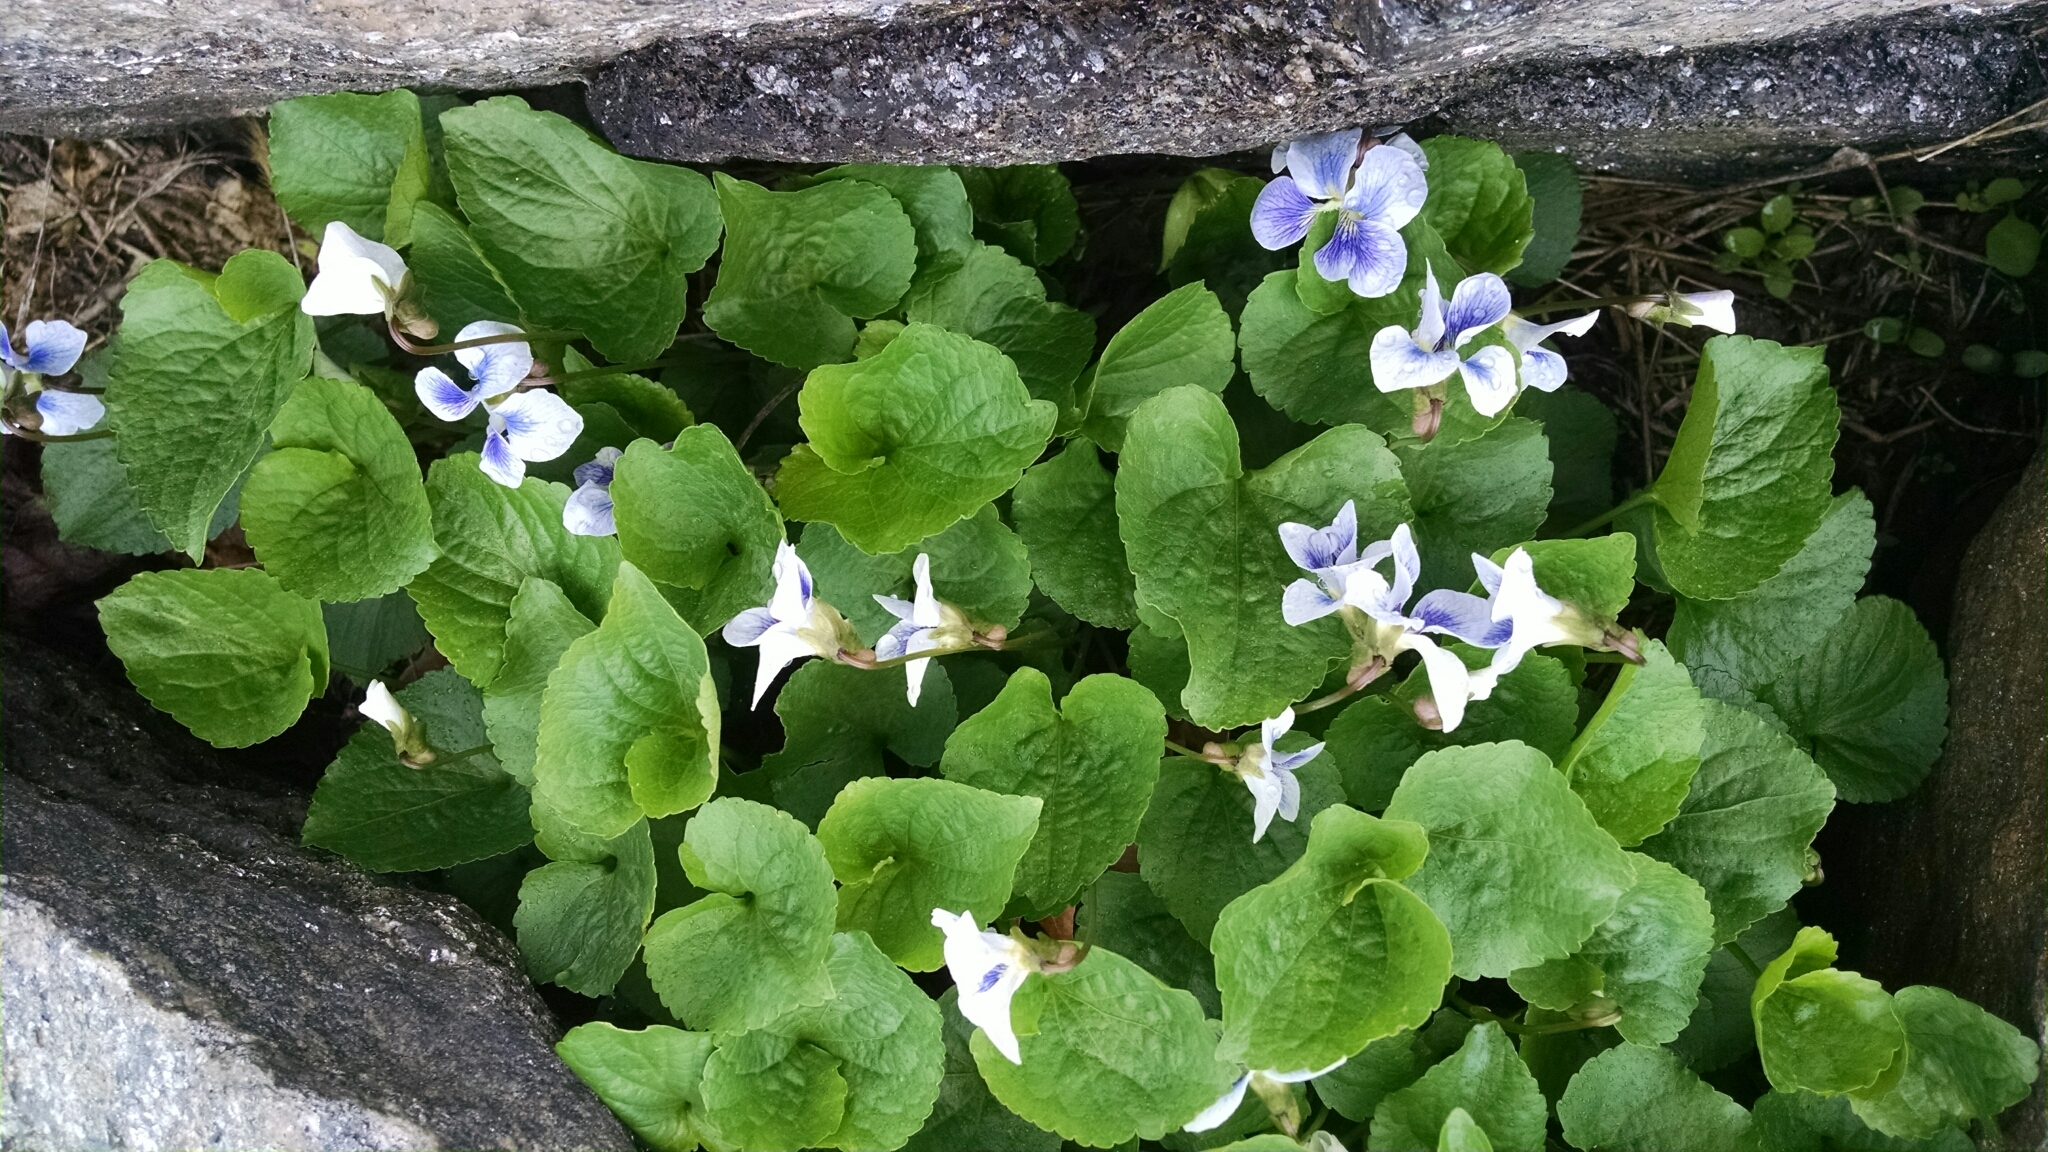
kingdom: Plantae
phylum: Tracheophyta
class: Magnoliopsida
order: Malpighiales
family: Violaceae
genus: Viola
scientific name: Viola sororia
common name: Dooryard violet
